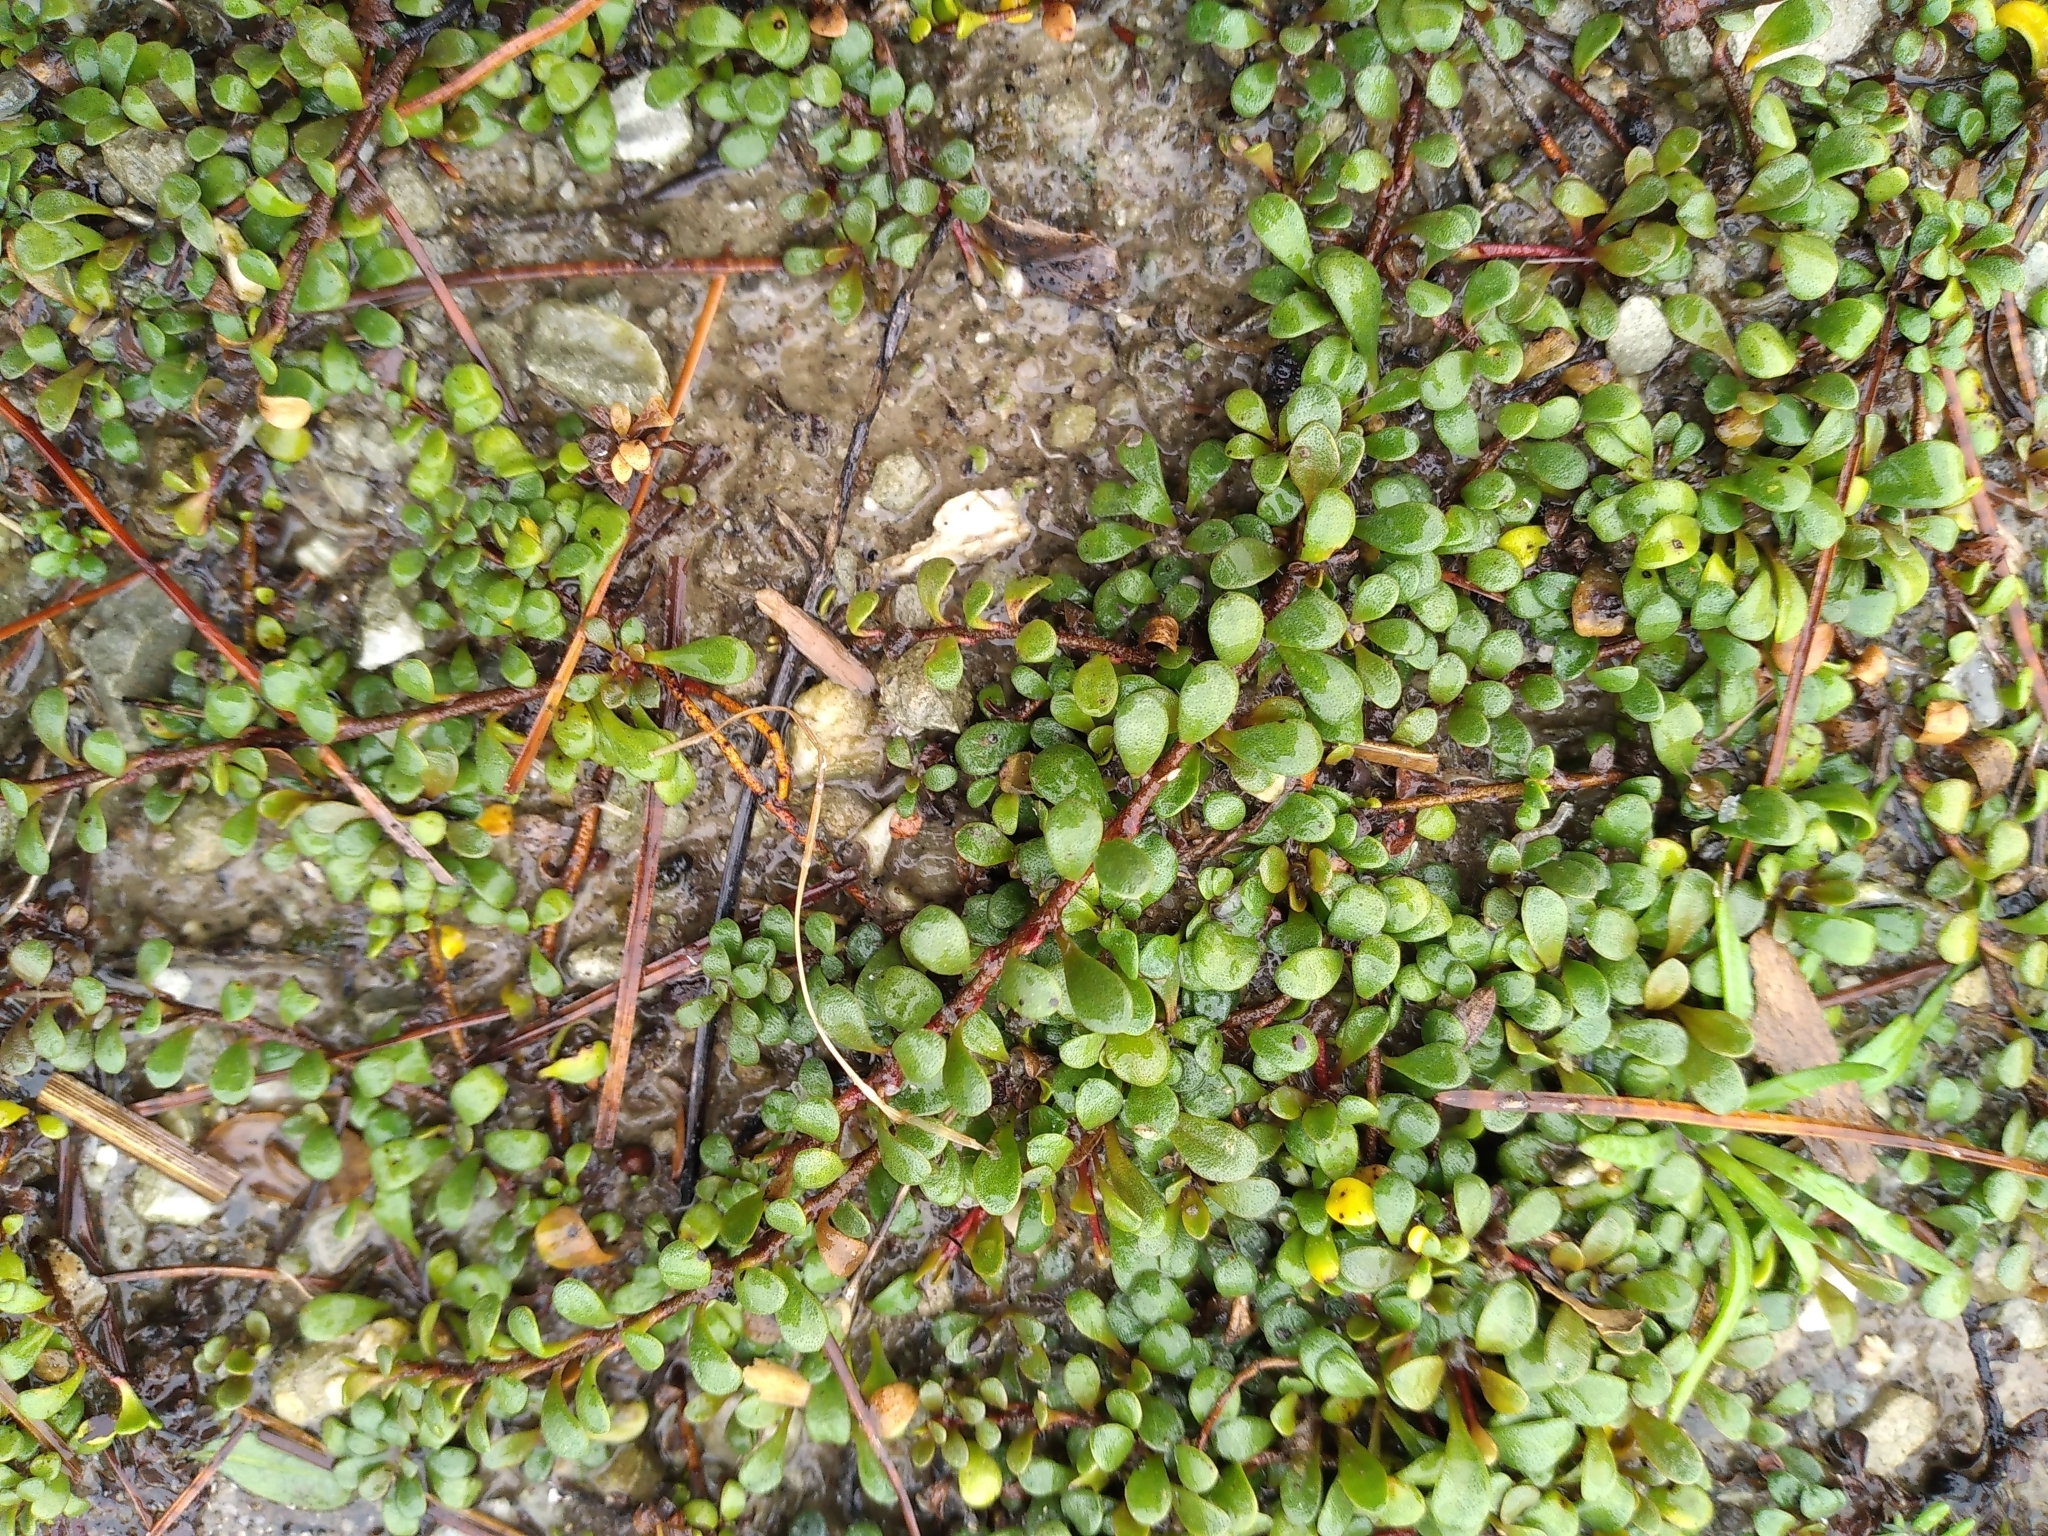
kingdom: Plantae
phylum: Tracheophyta
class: Magnoliopsida
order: Ericales
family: Primulaceae
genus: Samolus
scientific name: Samolus repens
